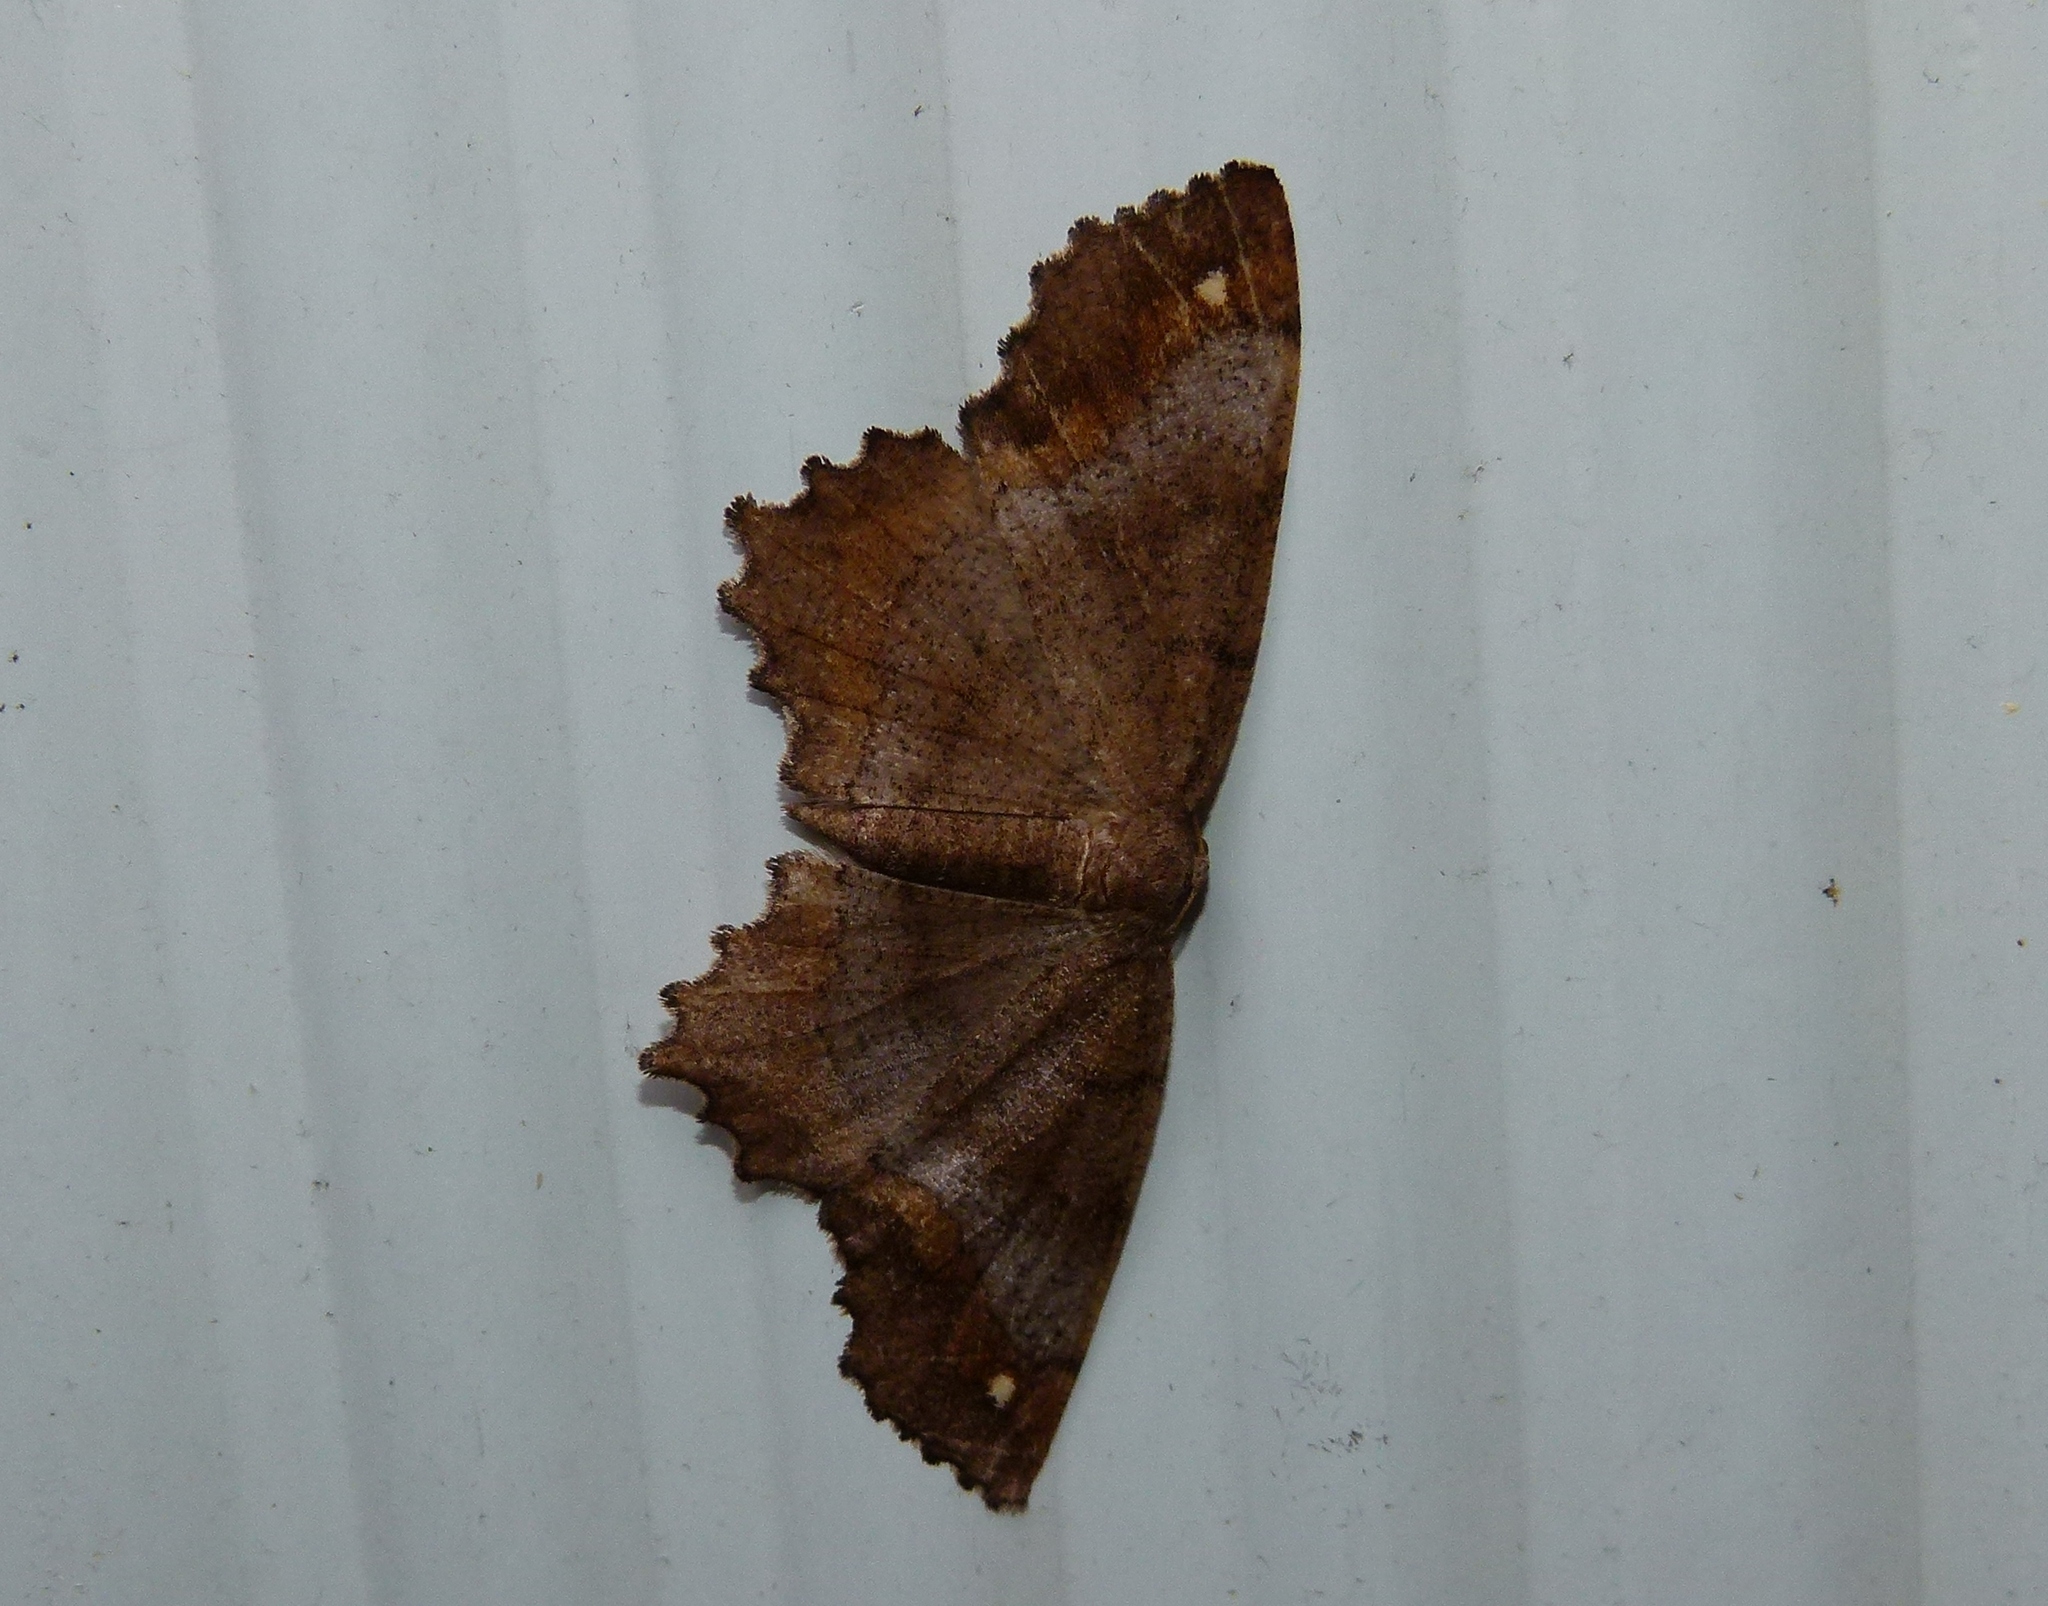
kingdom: Animalia
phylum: Arthropoda
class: Insecta
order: Lepidoptera
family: Geometridae
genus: Hypagyrtis
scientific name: Hypagyrtis unipunctata
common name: One-spotted variant
